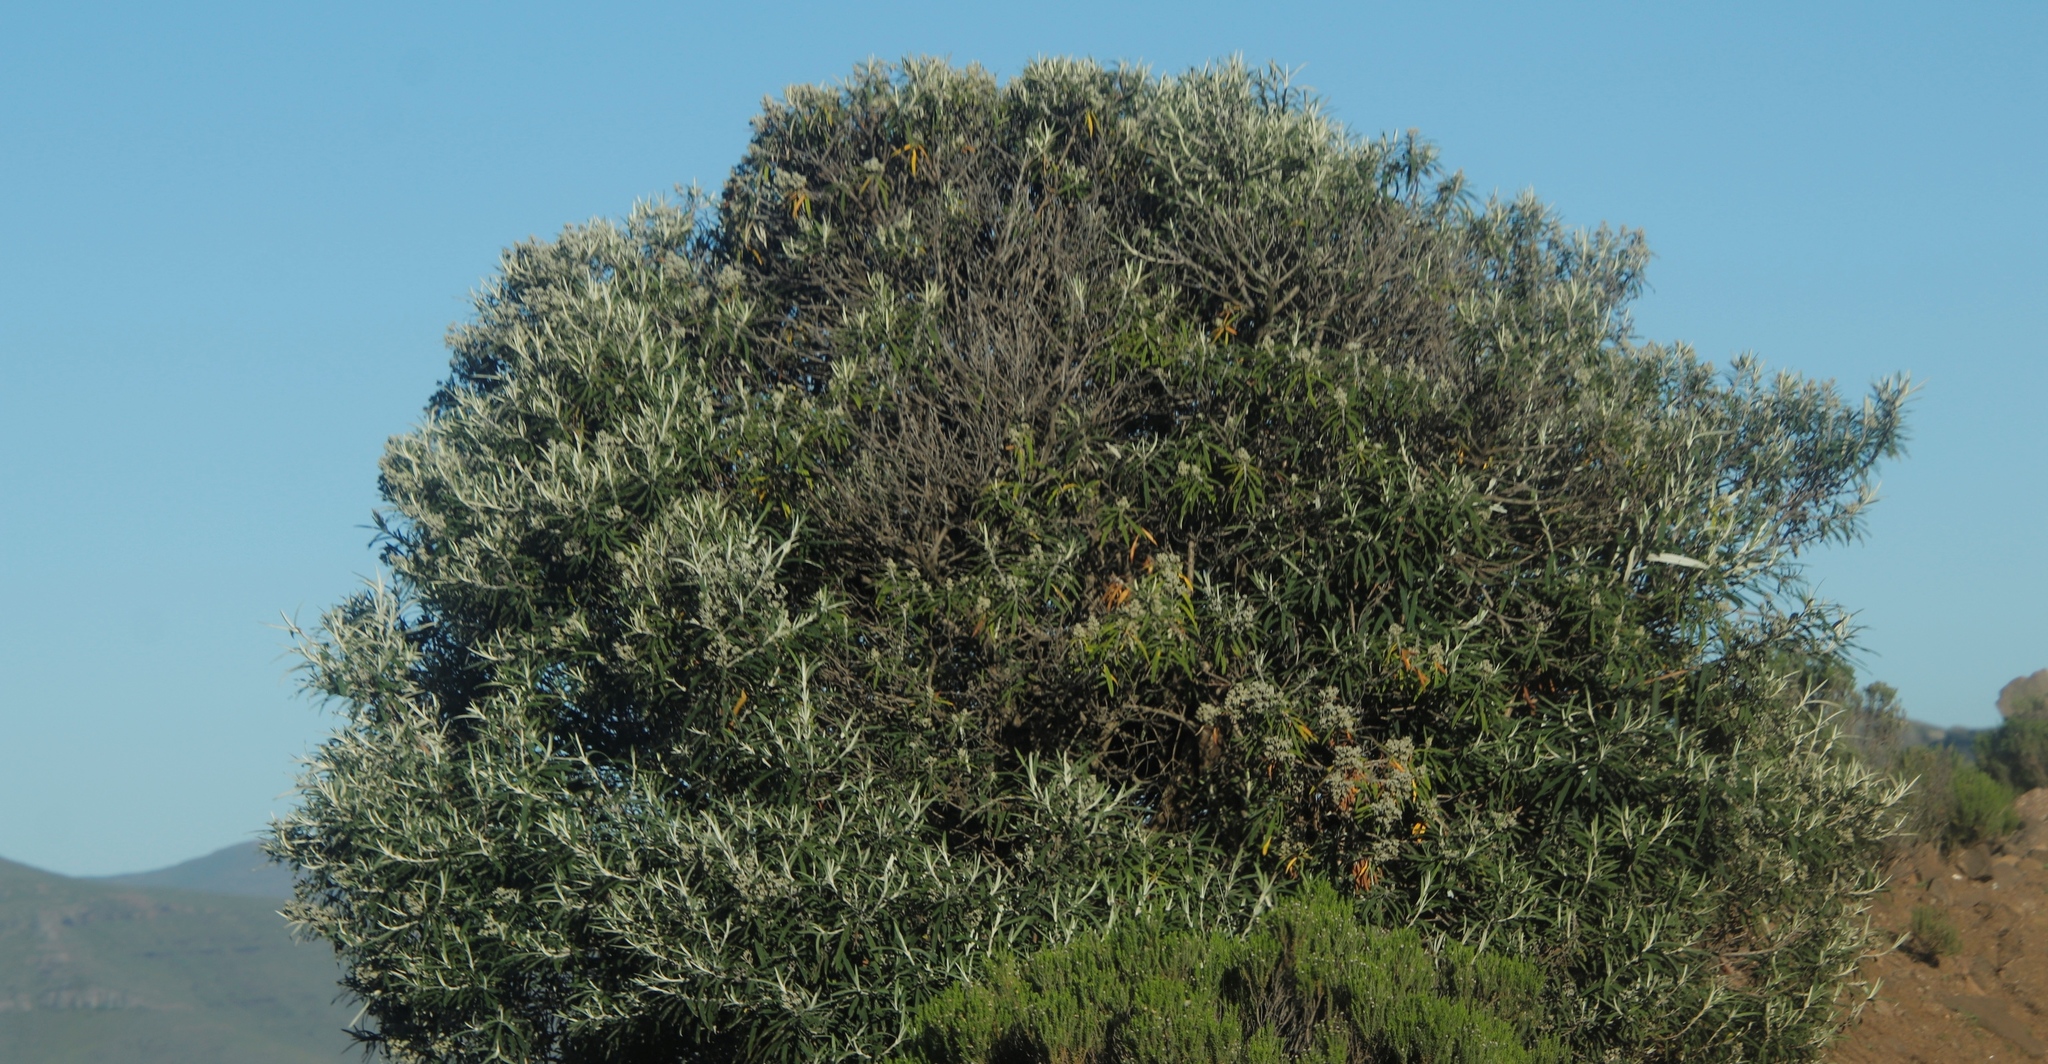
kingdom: Plantae
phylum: Tracheophyta
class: Magnoliopsida
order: Lamiales
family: Scrophulariaceae
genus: Buddleja
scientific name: Buddleja loricata
